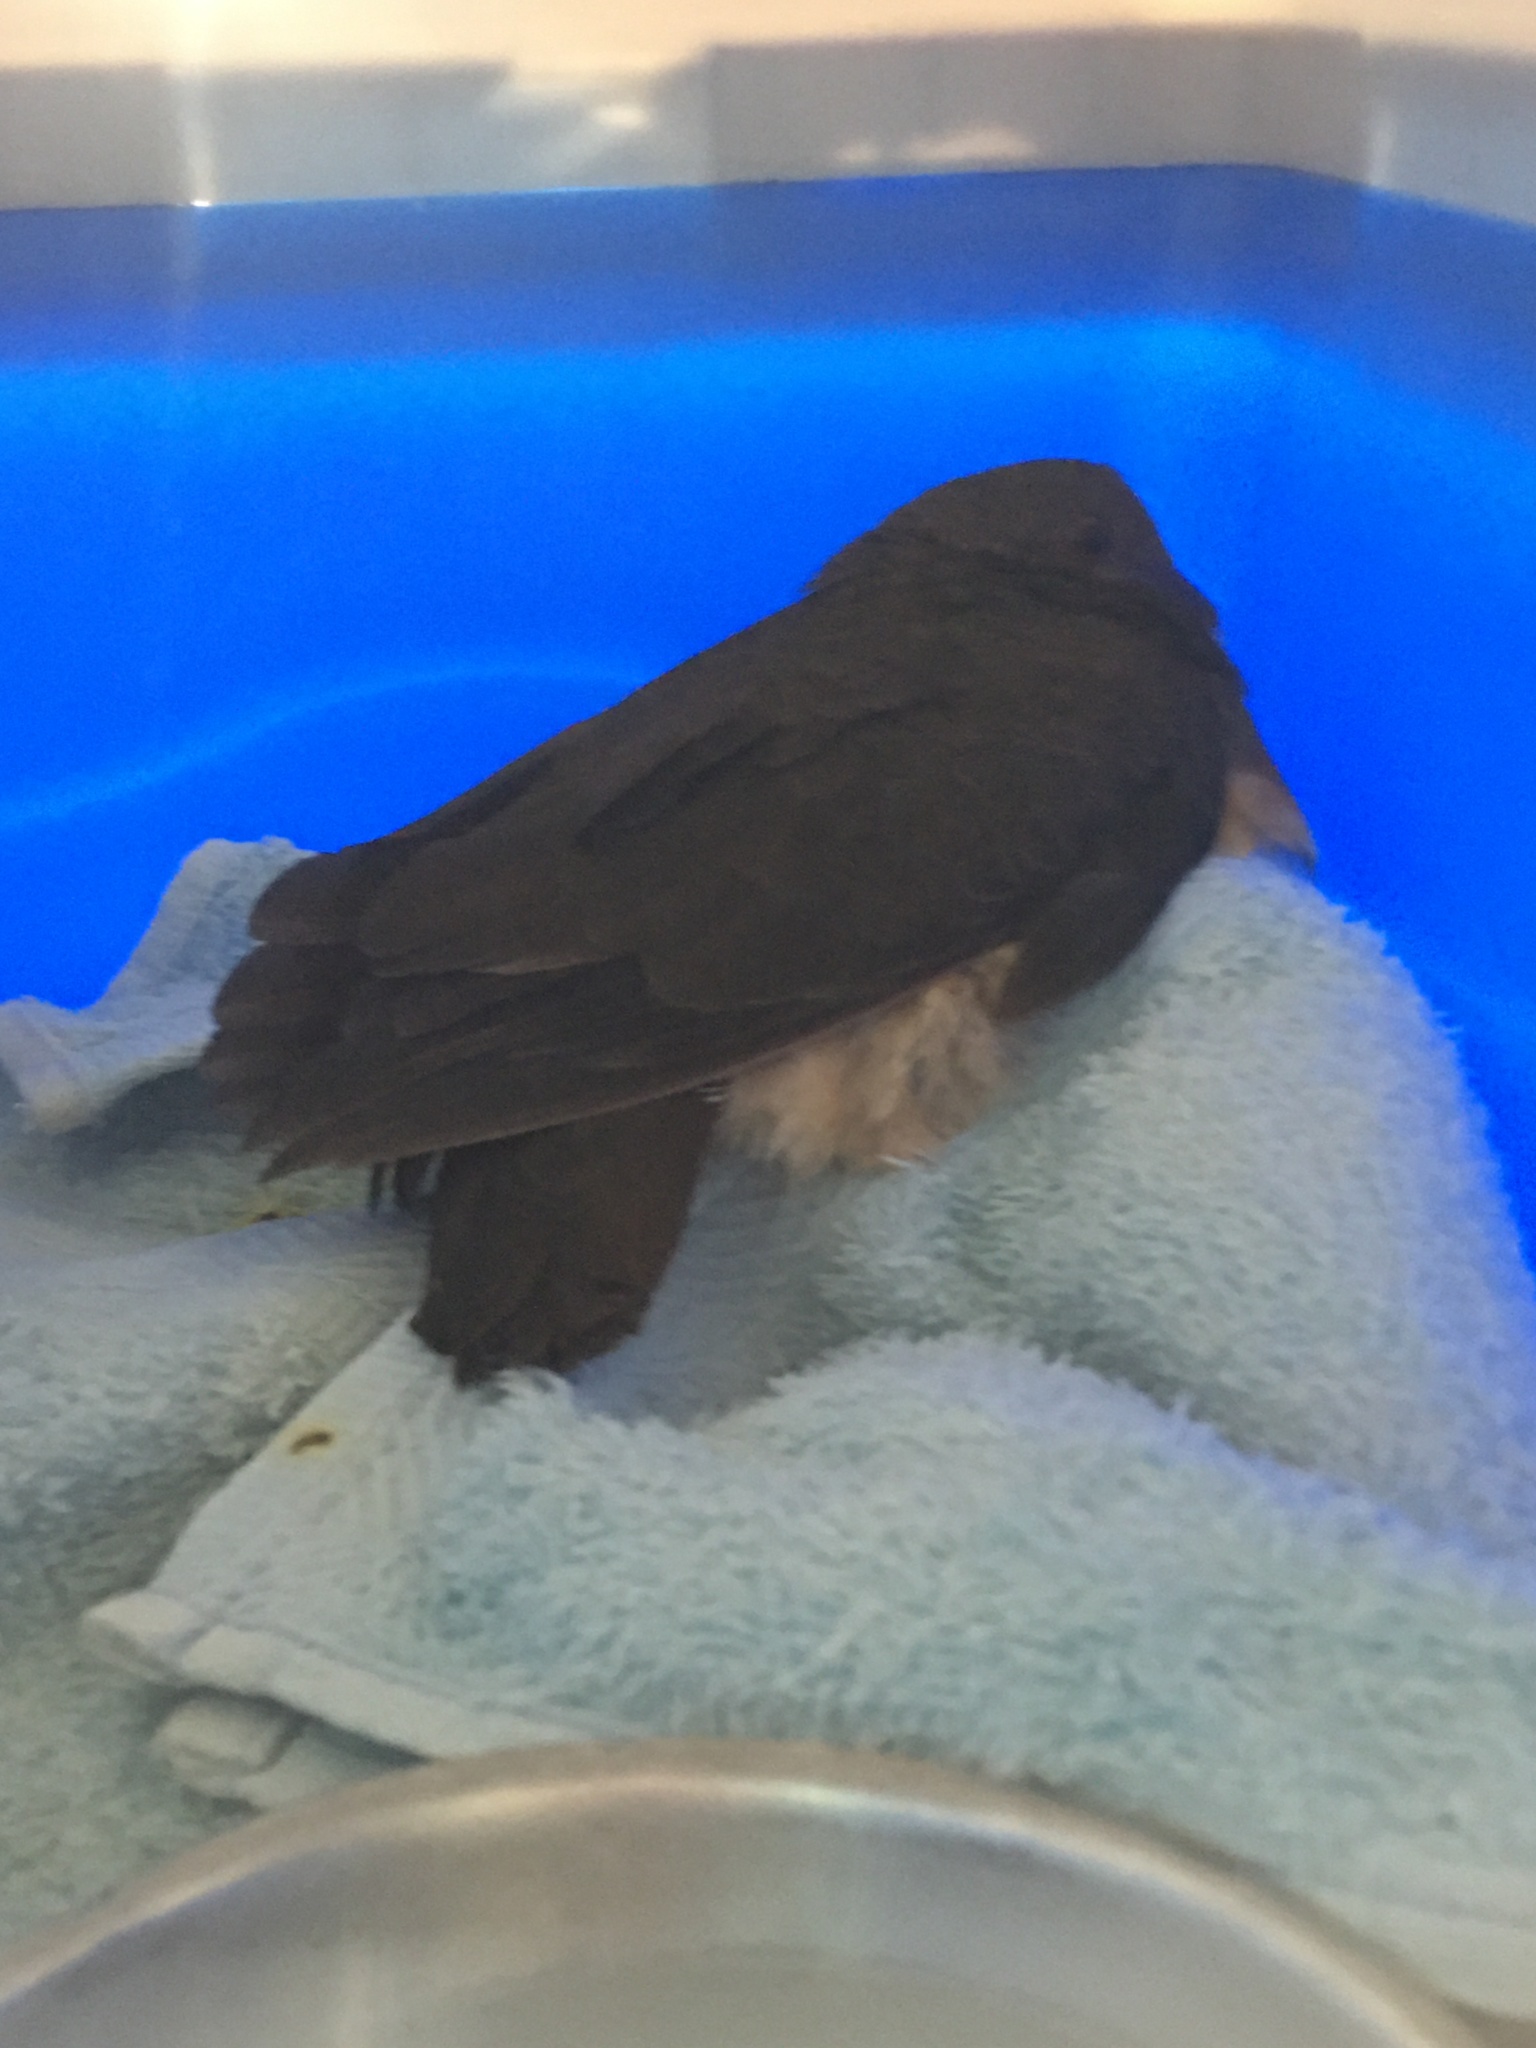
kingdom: Animalia
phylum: Chordata
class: Aves
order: Columbiformes
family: Columbidae
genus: Geotrygon
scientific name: Geotrygon montana
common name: Ruddy quail-dove
